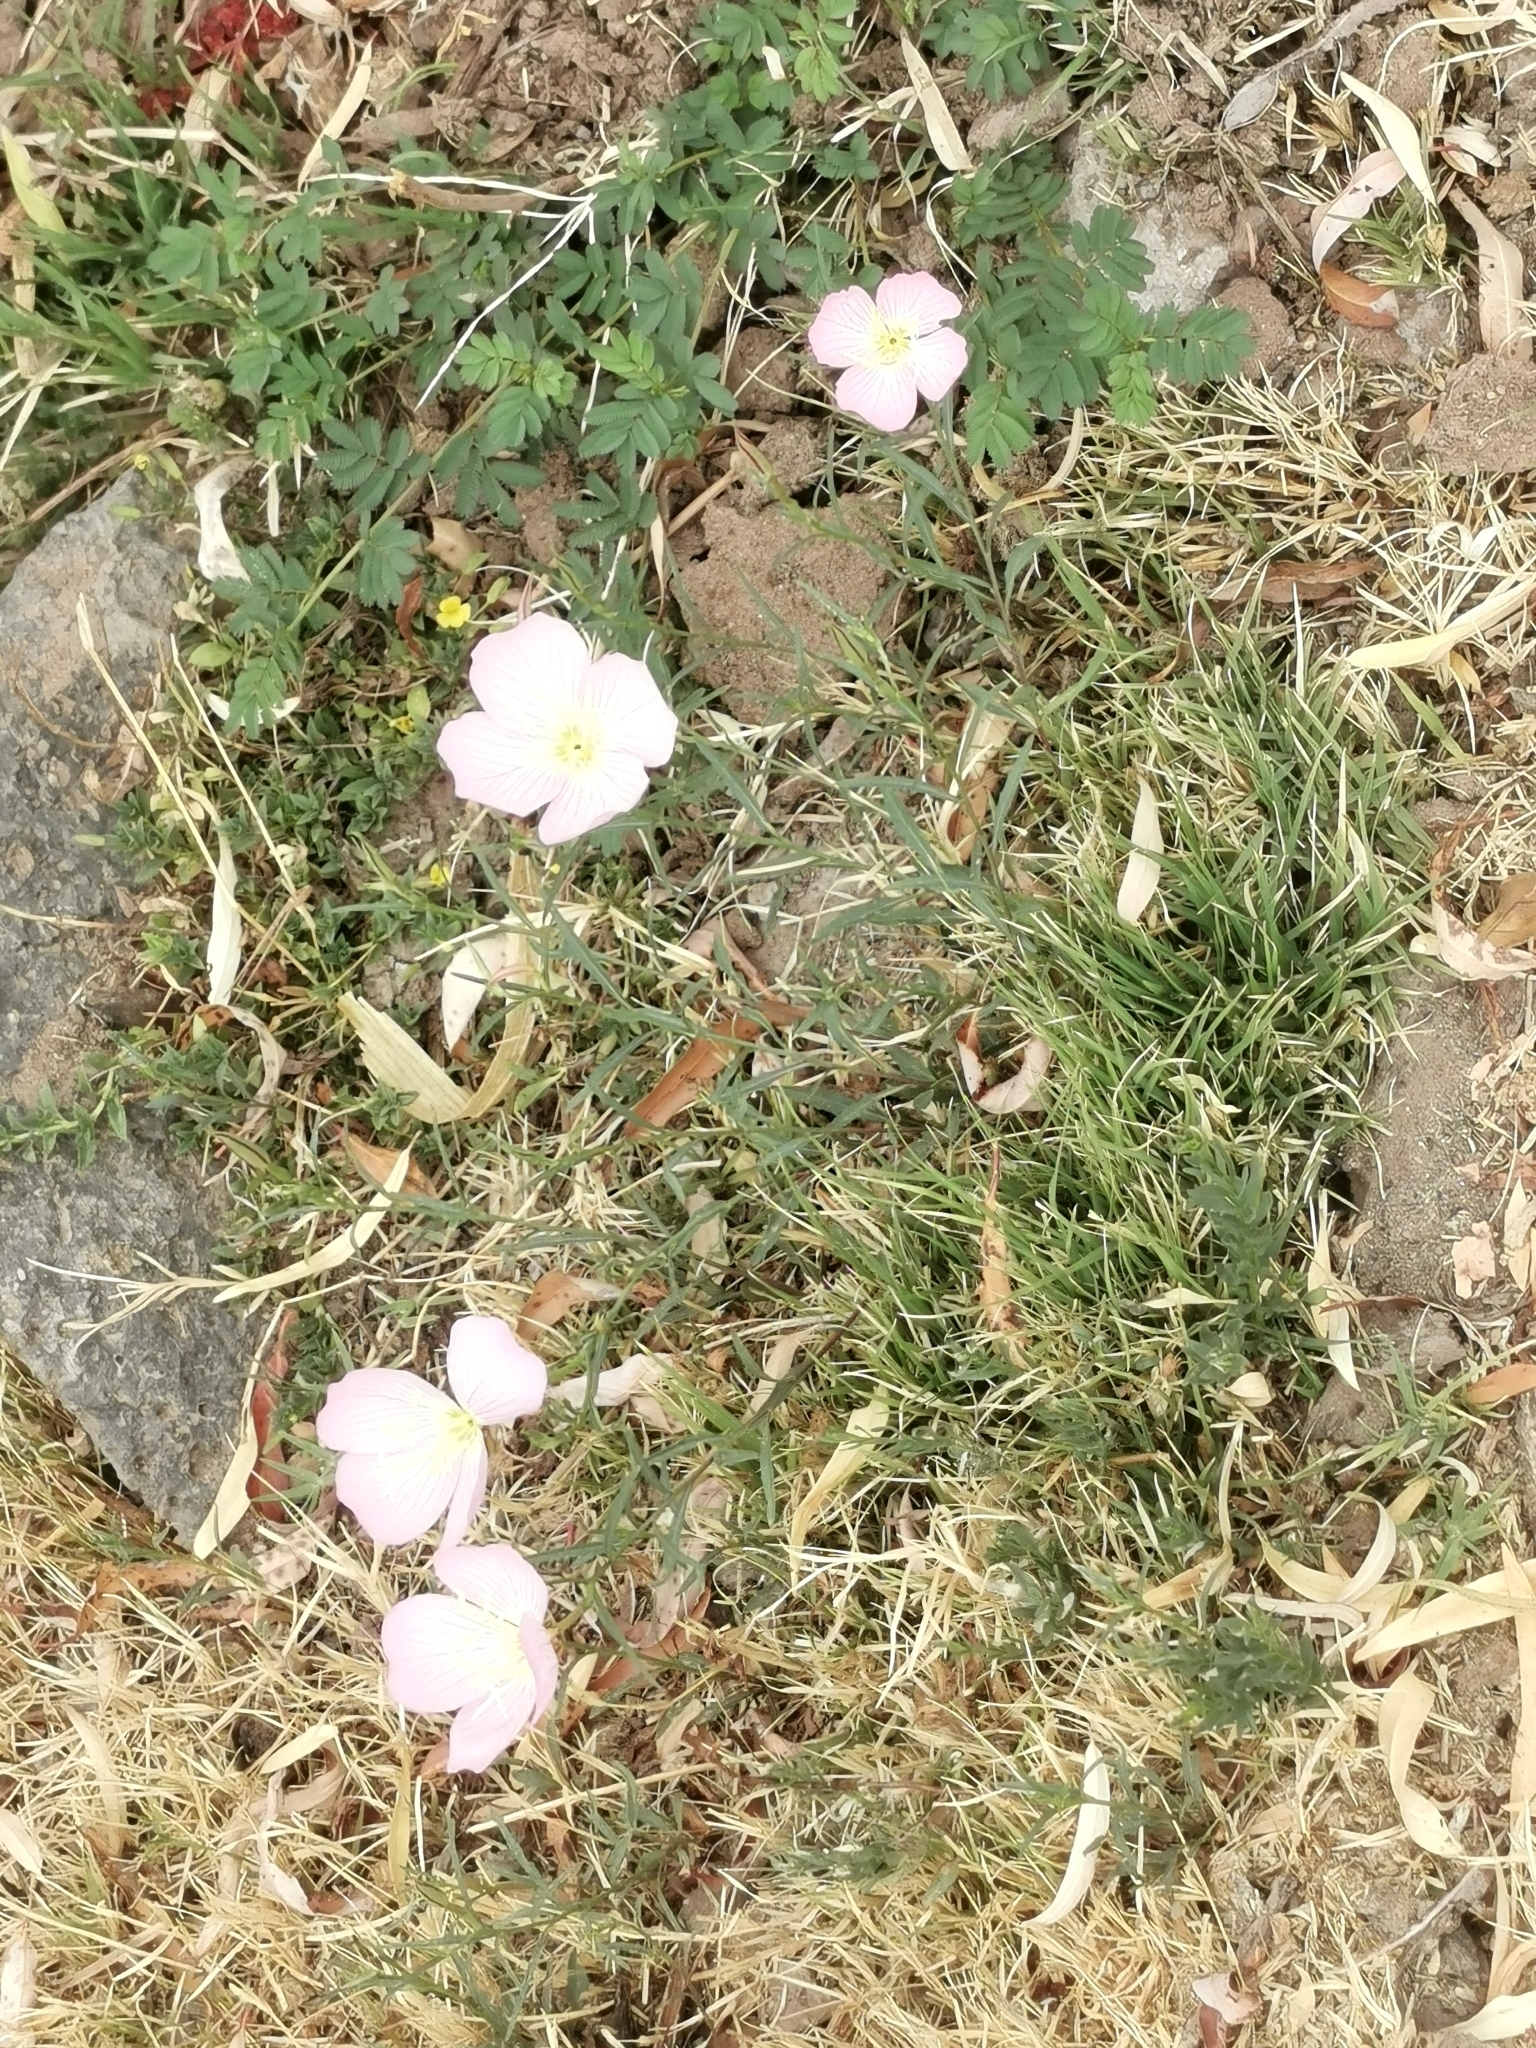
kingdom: Plantae
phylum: Tracheophyta
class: Magnoliopsida
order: Myrtales
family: Onagraceae
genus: Oenothera
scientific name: Oenothera speciosa
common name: White evening-primrose
